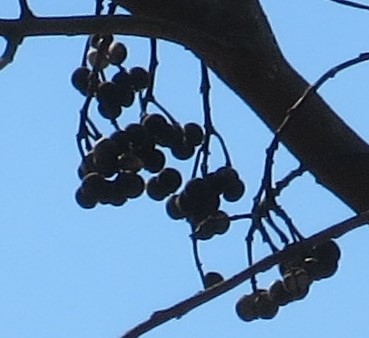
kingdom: Plantae
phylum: Tracheophyta
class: Magnoliopsida
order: Malpighiales
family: Euphorbiaceae
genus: Triadica
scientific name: Triadica sebifera
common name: Chinese tallow
